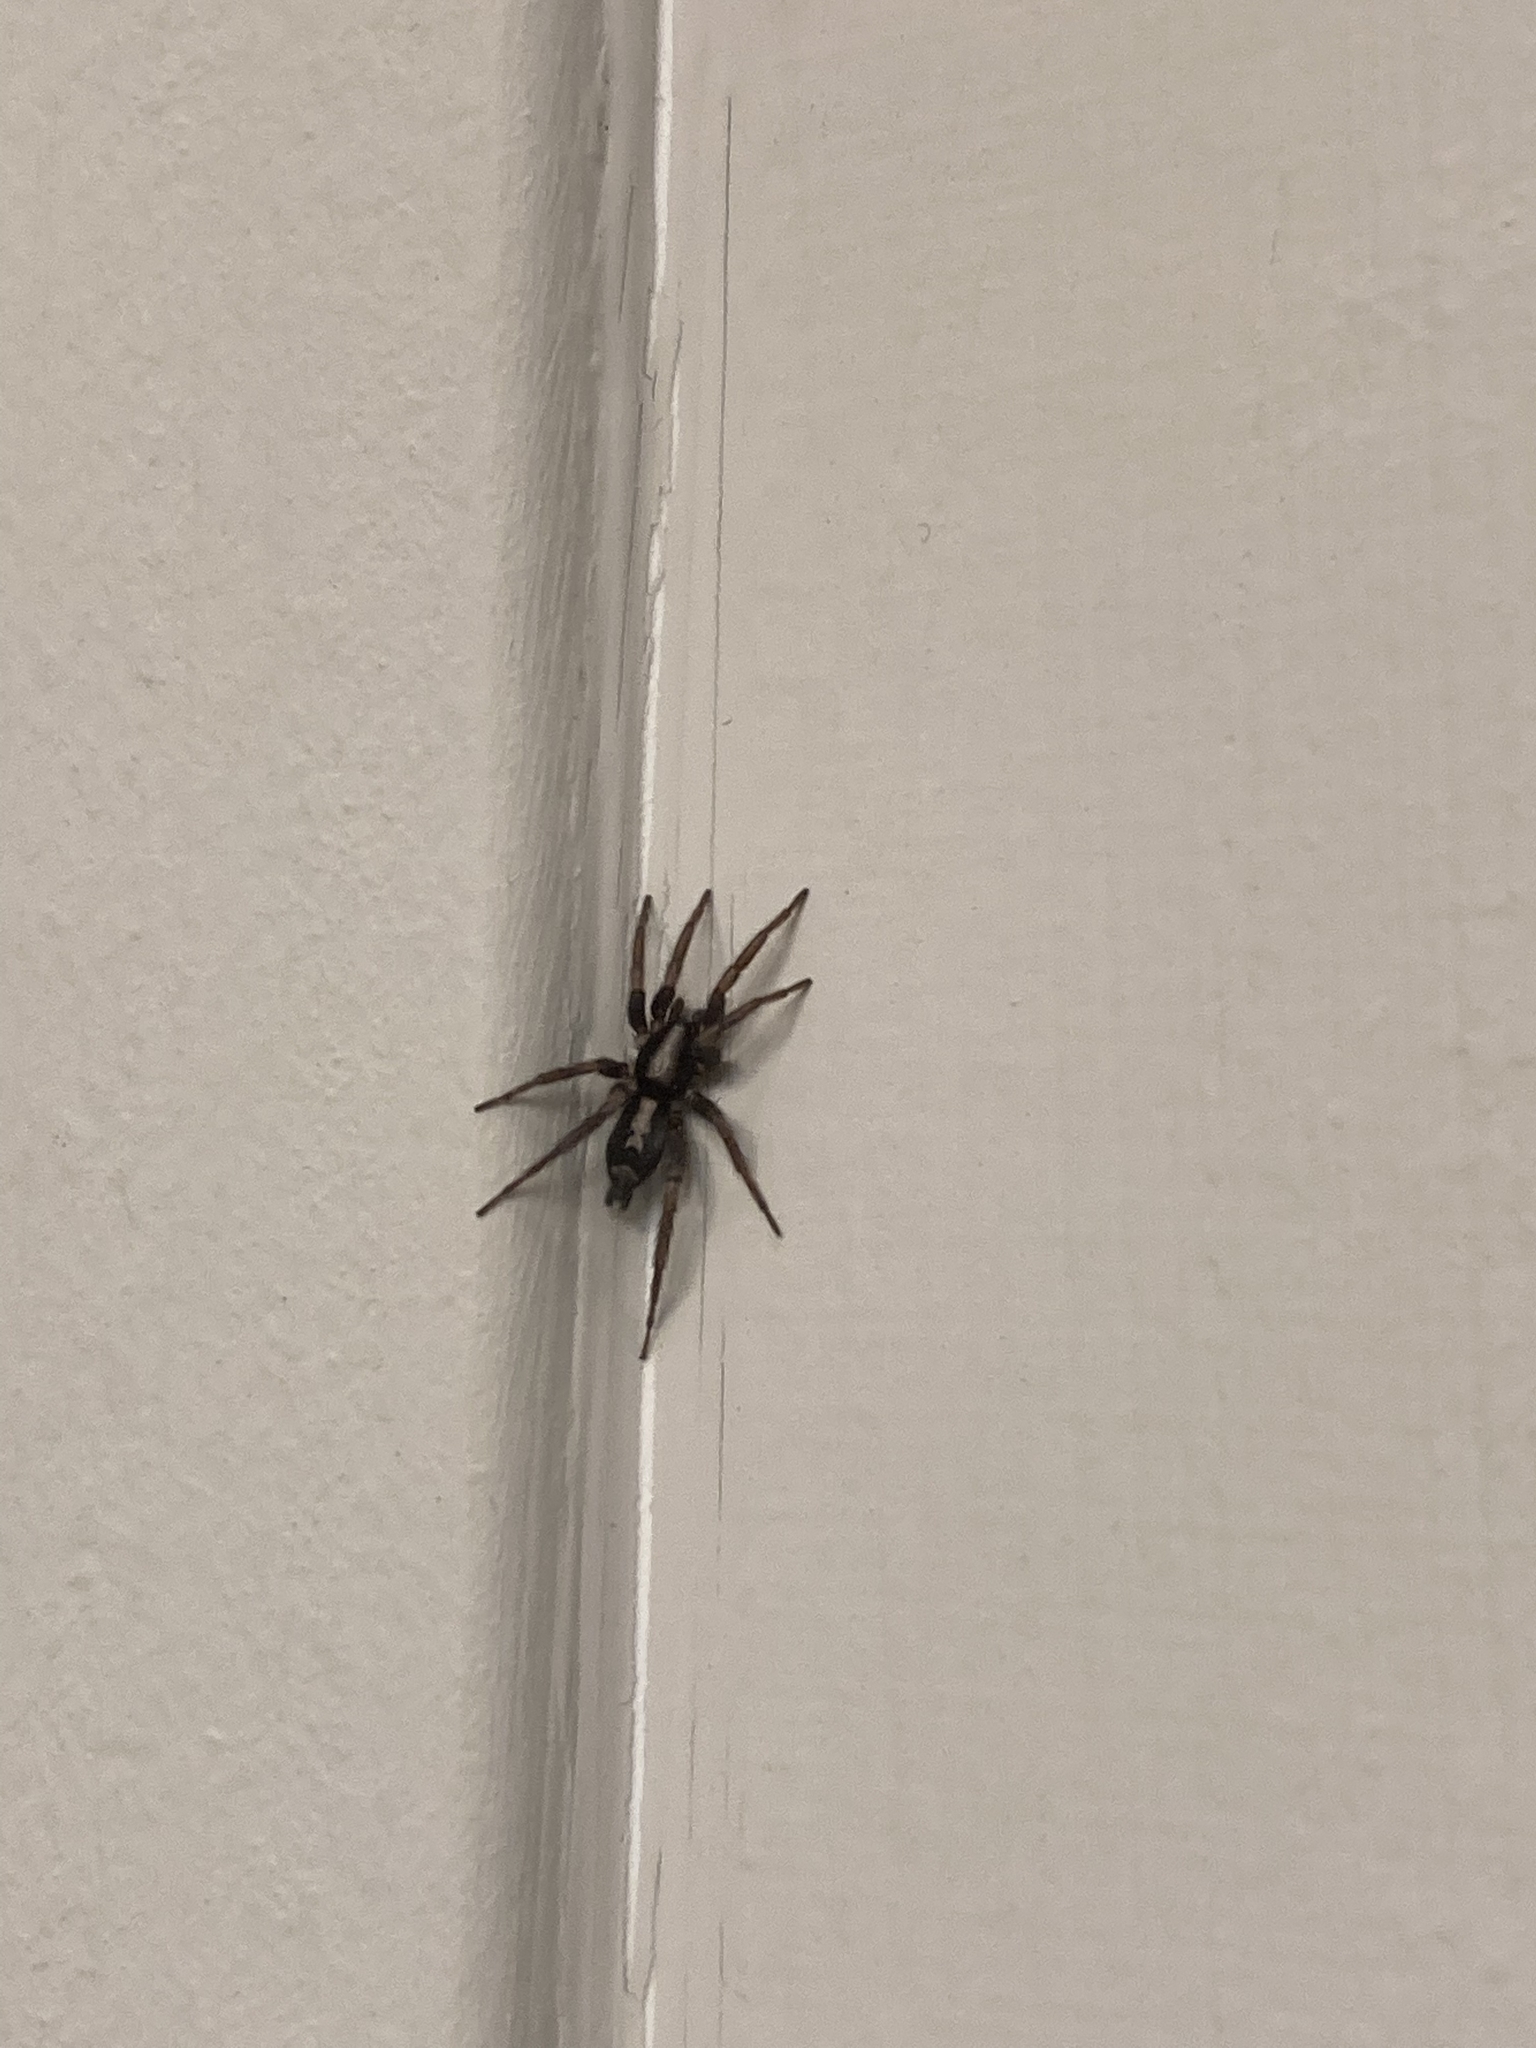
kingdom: Animalia
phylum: Arthropoda
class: Arachnida
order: Araneae
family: Gnaphosidae
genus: Herpyllus
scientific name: Herpyllus ecclesiasticus
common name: Eastern parson spider
